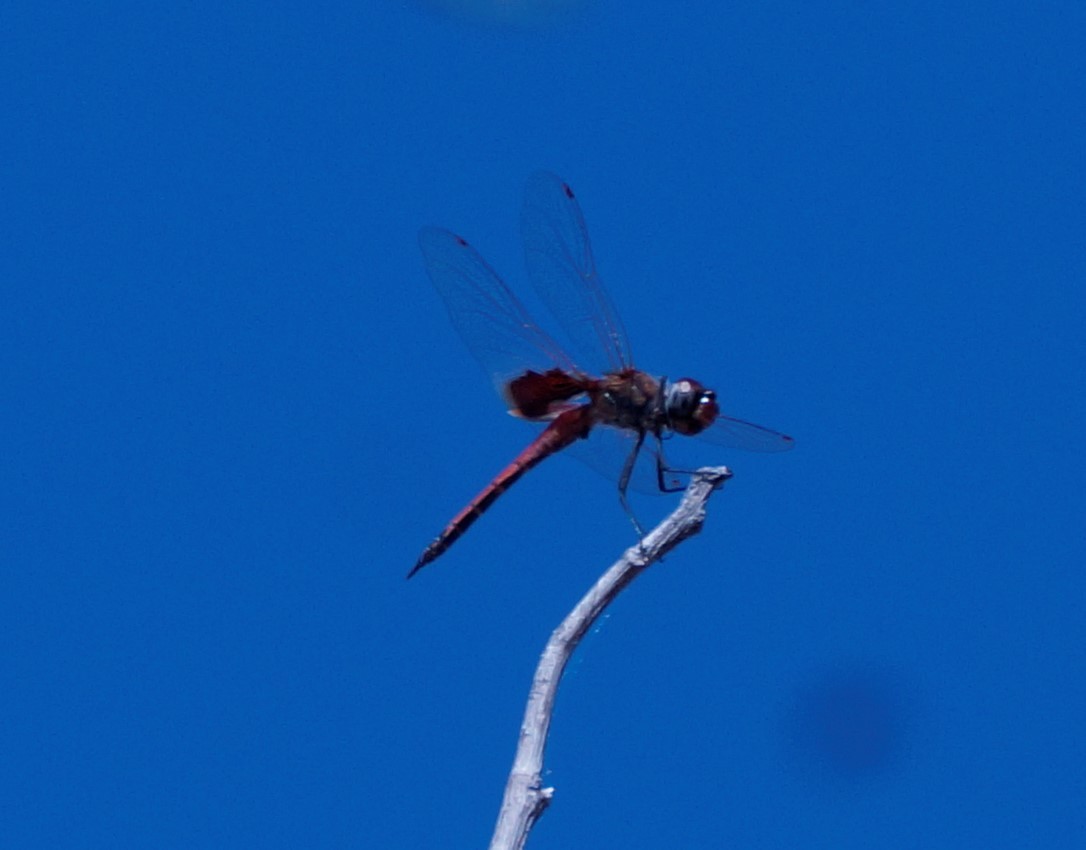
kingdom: Animalia
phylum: Arthropoda
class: Insecta
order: Odonata
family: Libellulidae
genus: Tramea
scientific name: Tramea loewii
